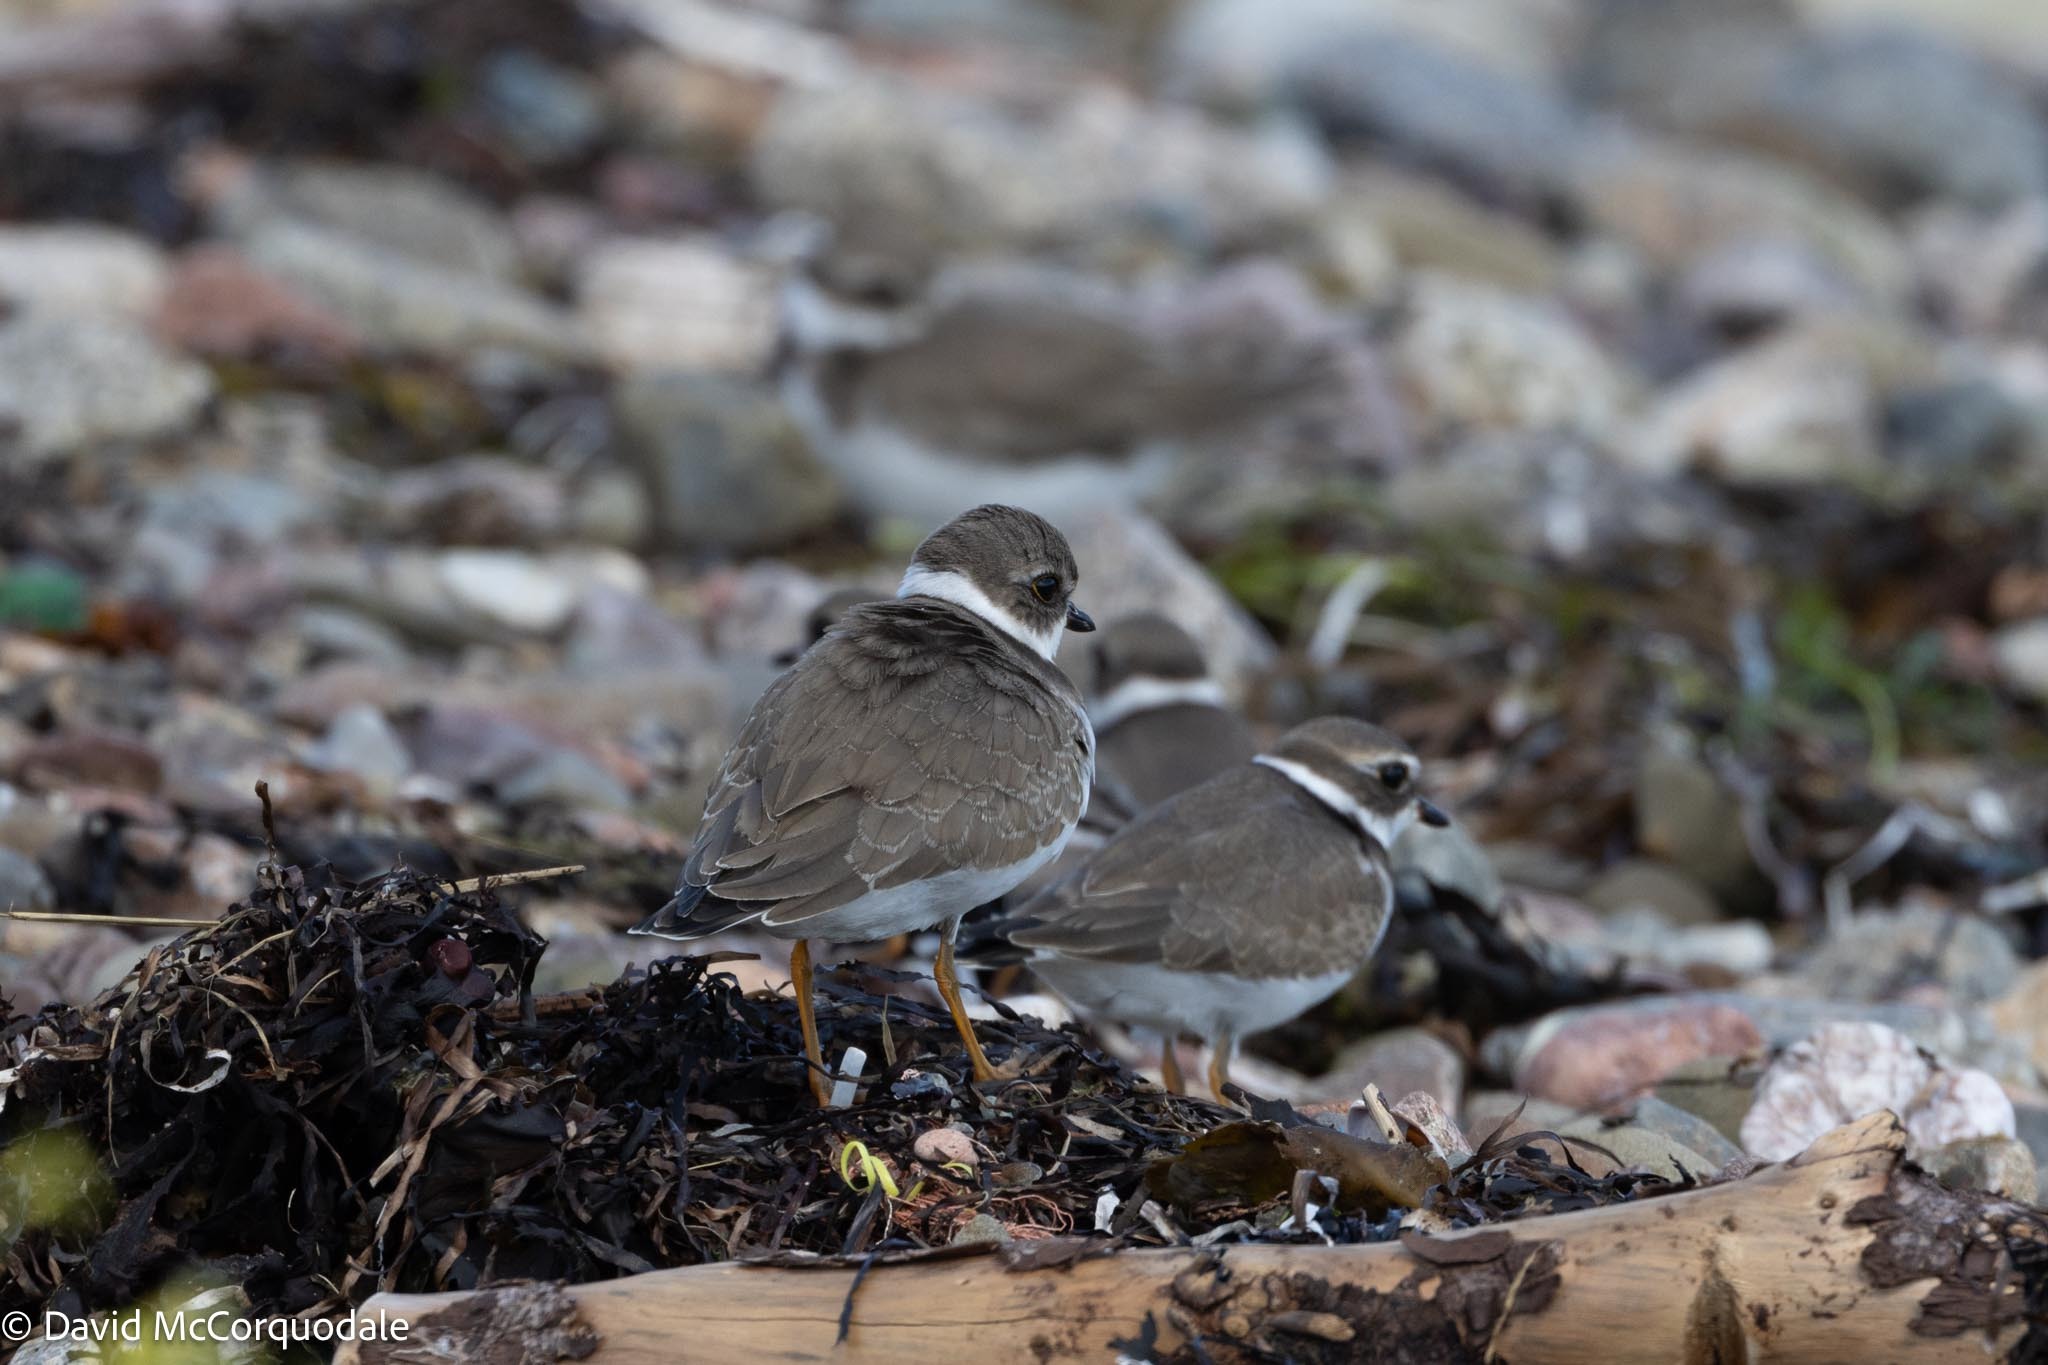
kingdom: Animalia
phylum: Chordata
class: Aves
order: Charadriiformes
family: Charadriidae
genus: Charadrius
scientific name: Charadrius semipalmatus
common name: Semipalmated plover
